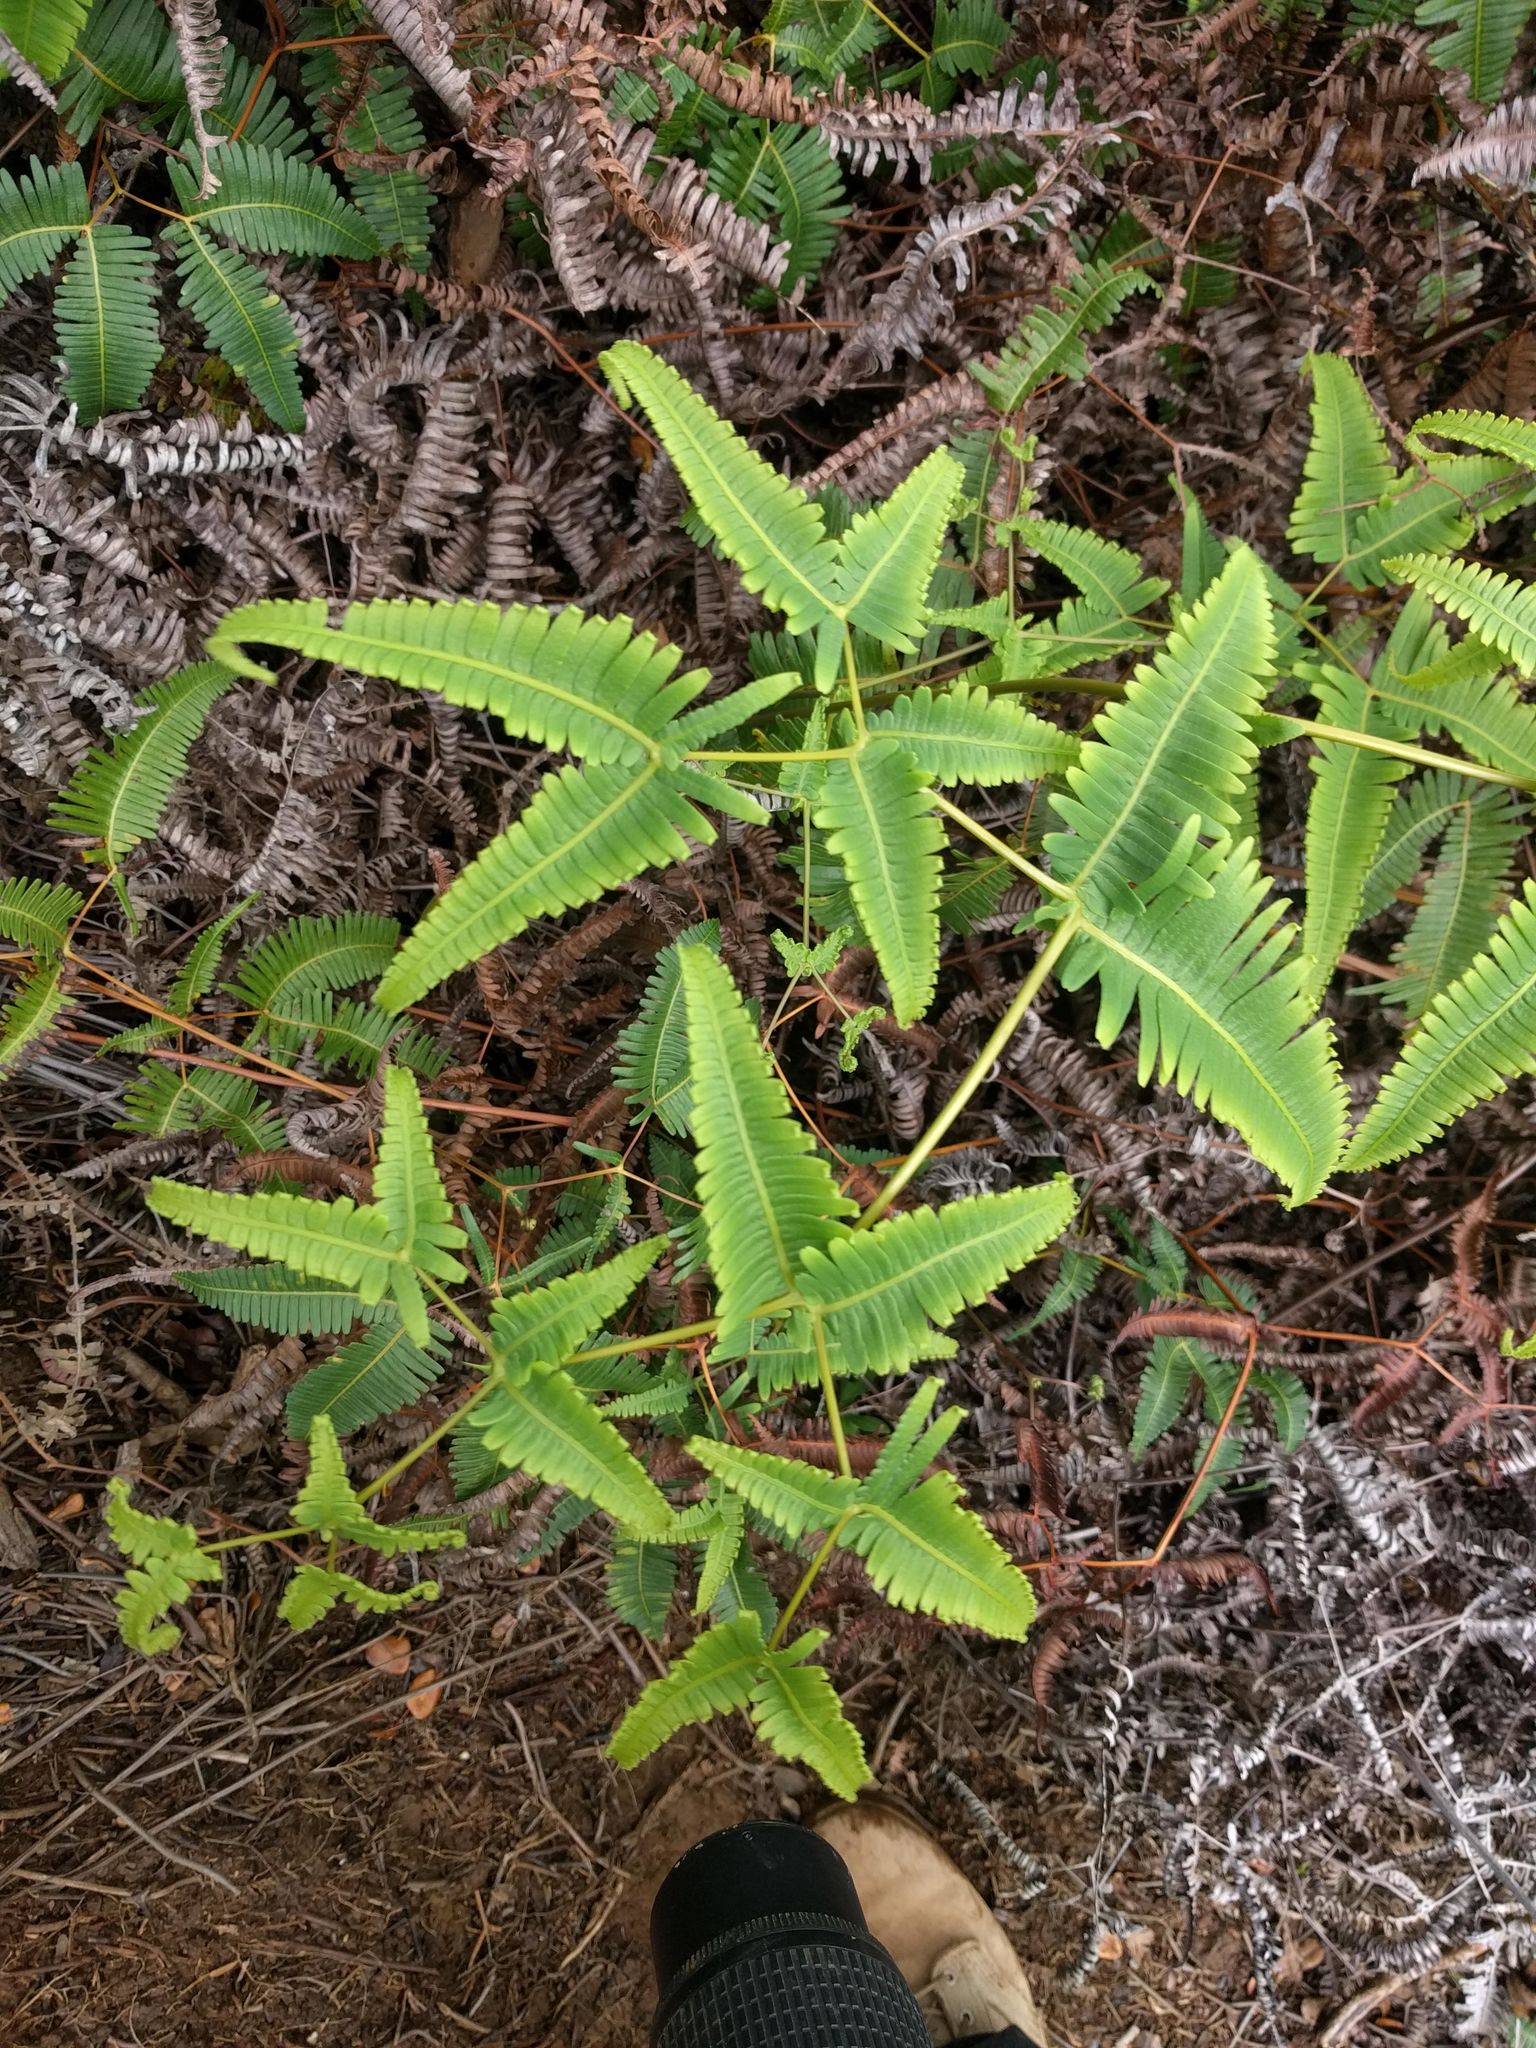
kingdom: Plantae
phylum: Tracheophyta
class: Polypodiopsida
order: Gleicheniales
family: Gleicheniaceae
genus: Dicranopteris
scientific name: Dicranopteris linearis
